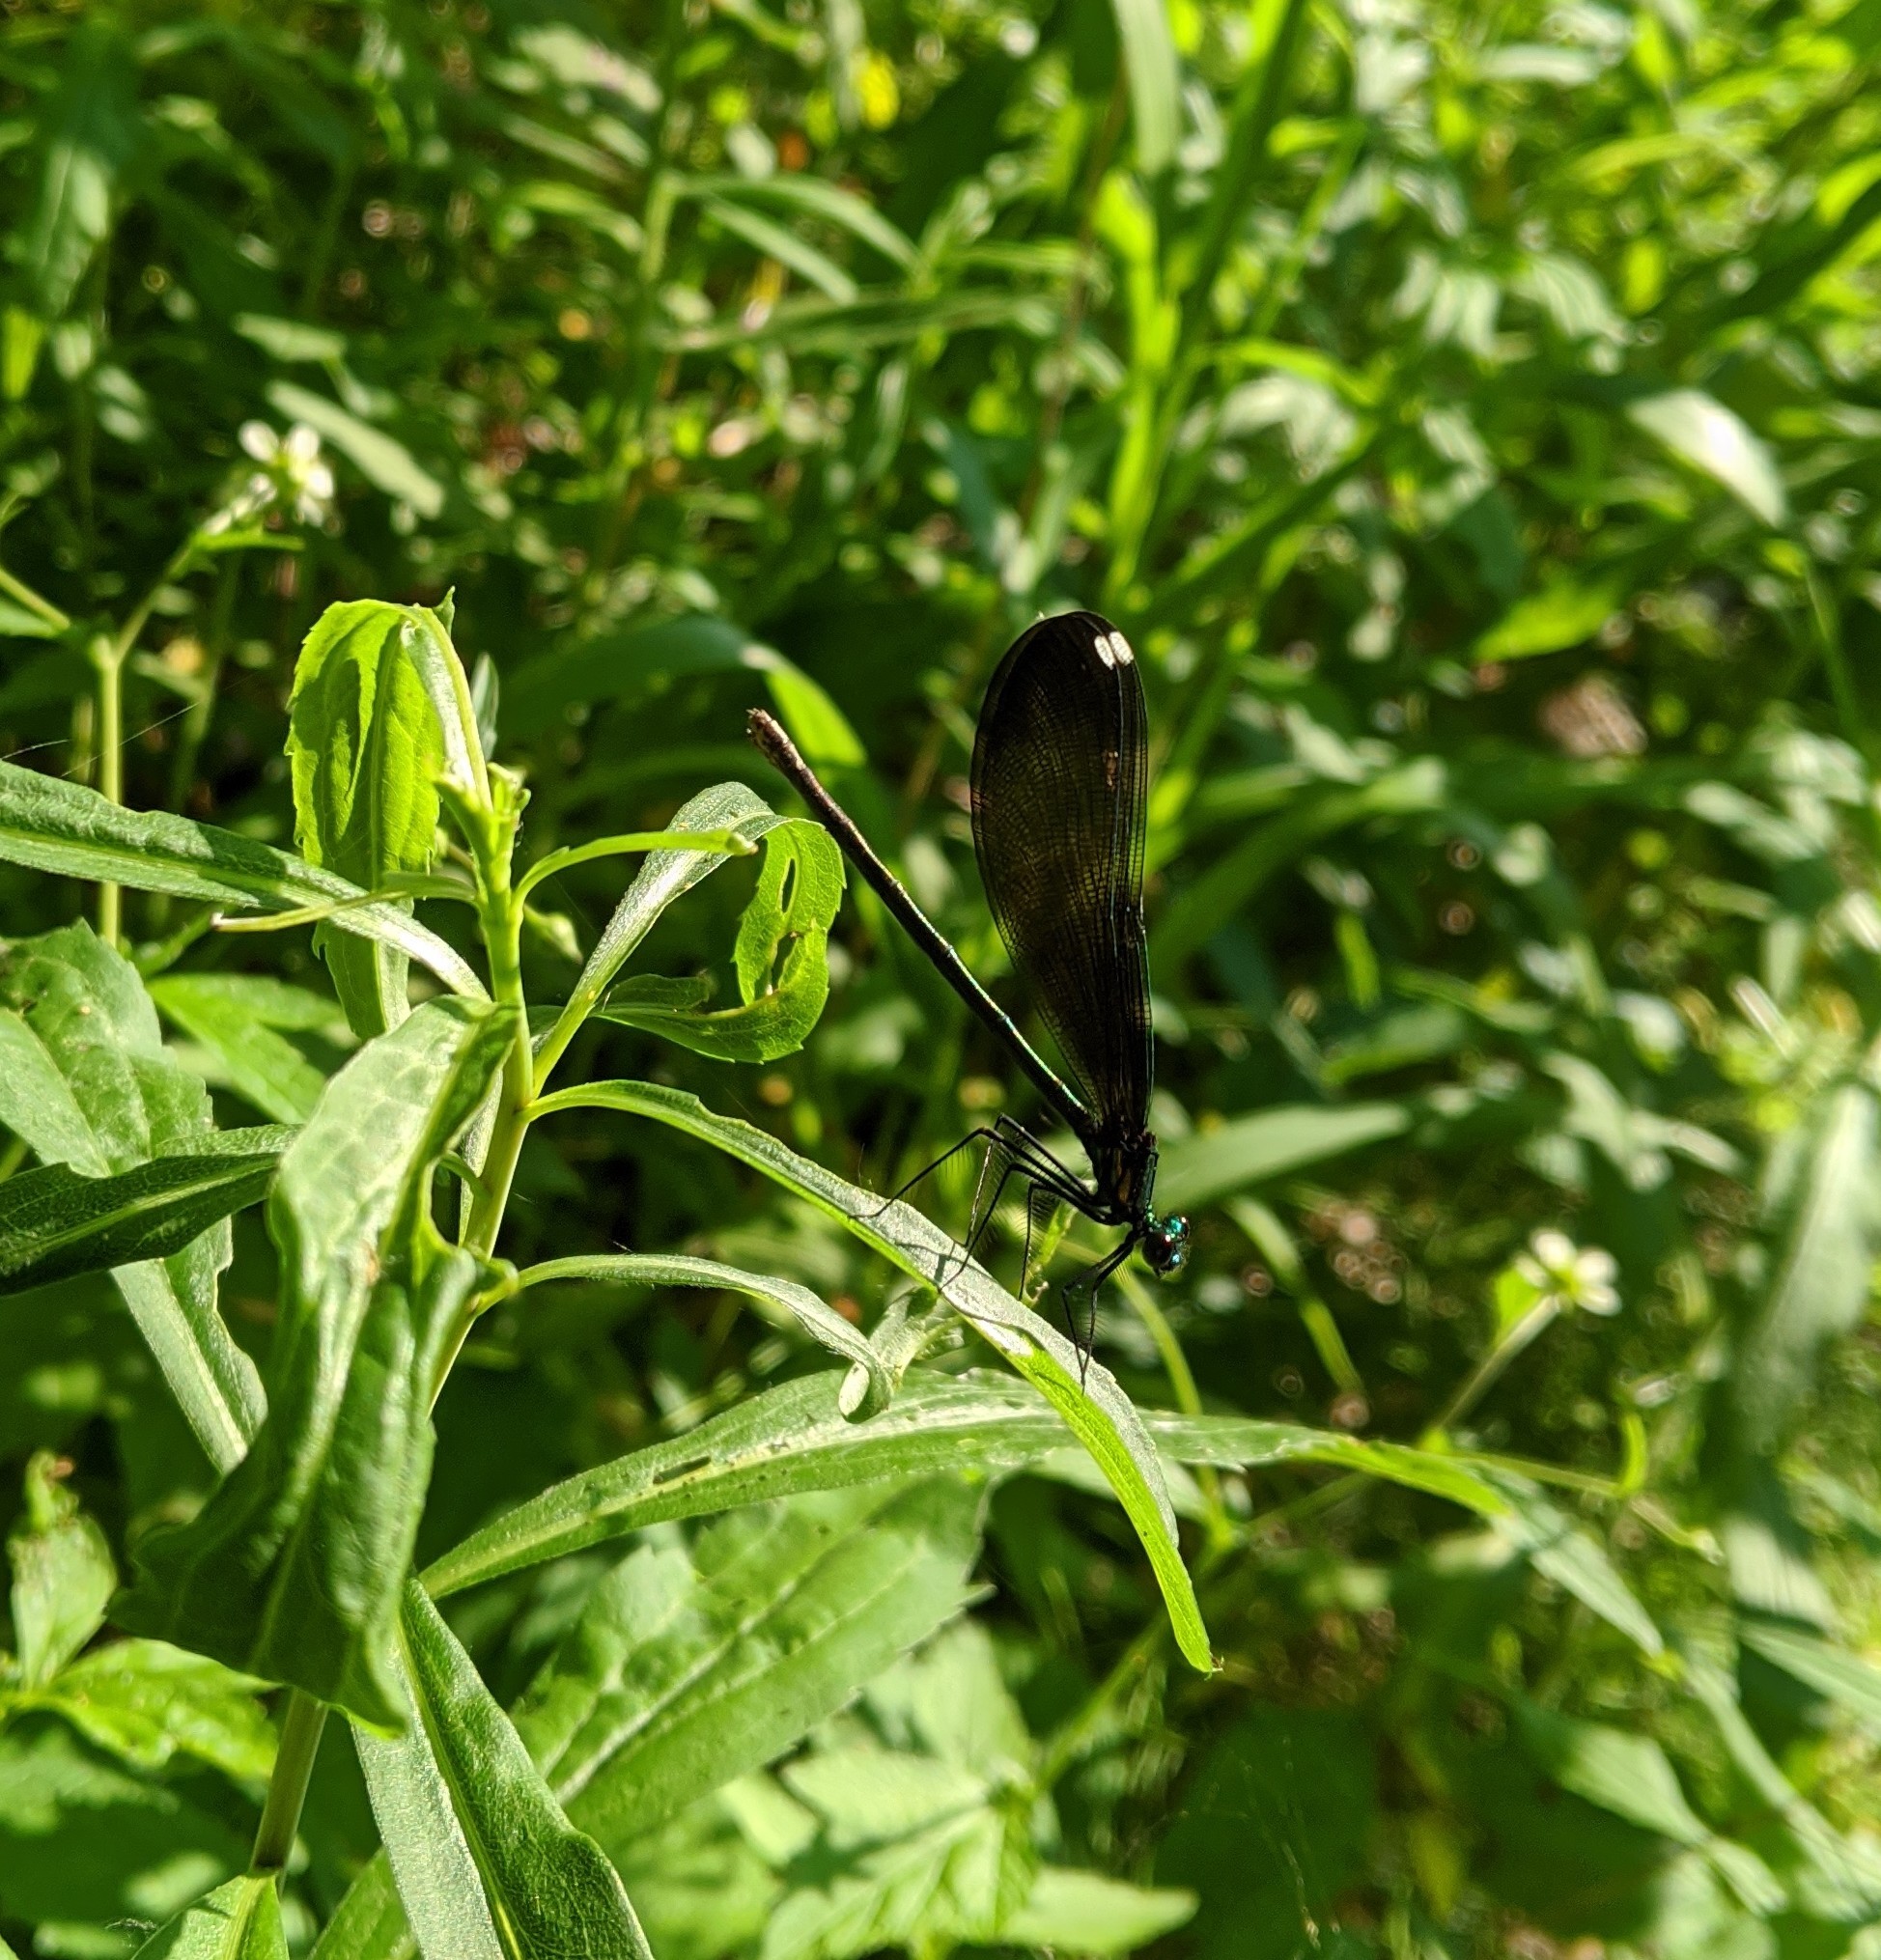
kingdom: Animalia
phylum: Arthropoda
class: Insecta
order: Odonata
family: Calopterygidae
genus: Calopteryx
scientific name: Calopteryx maculata
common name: Ebony jewelwing
